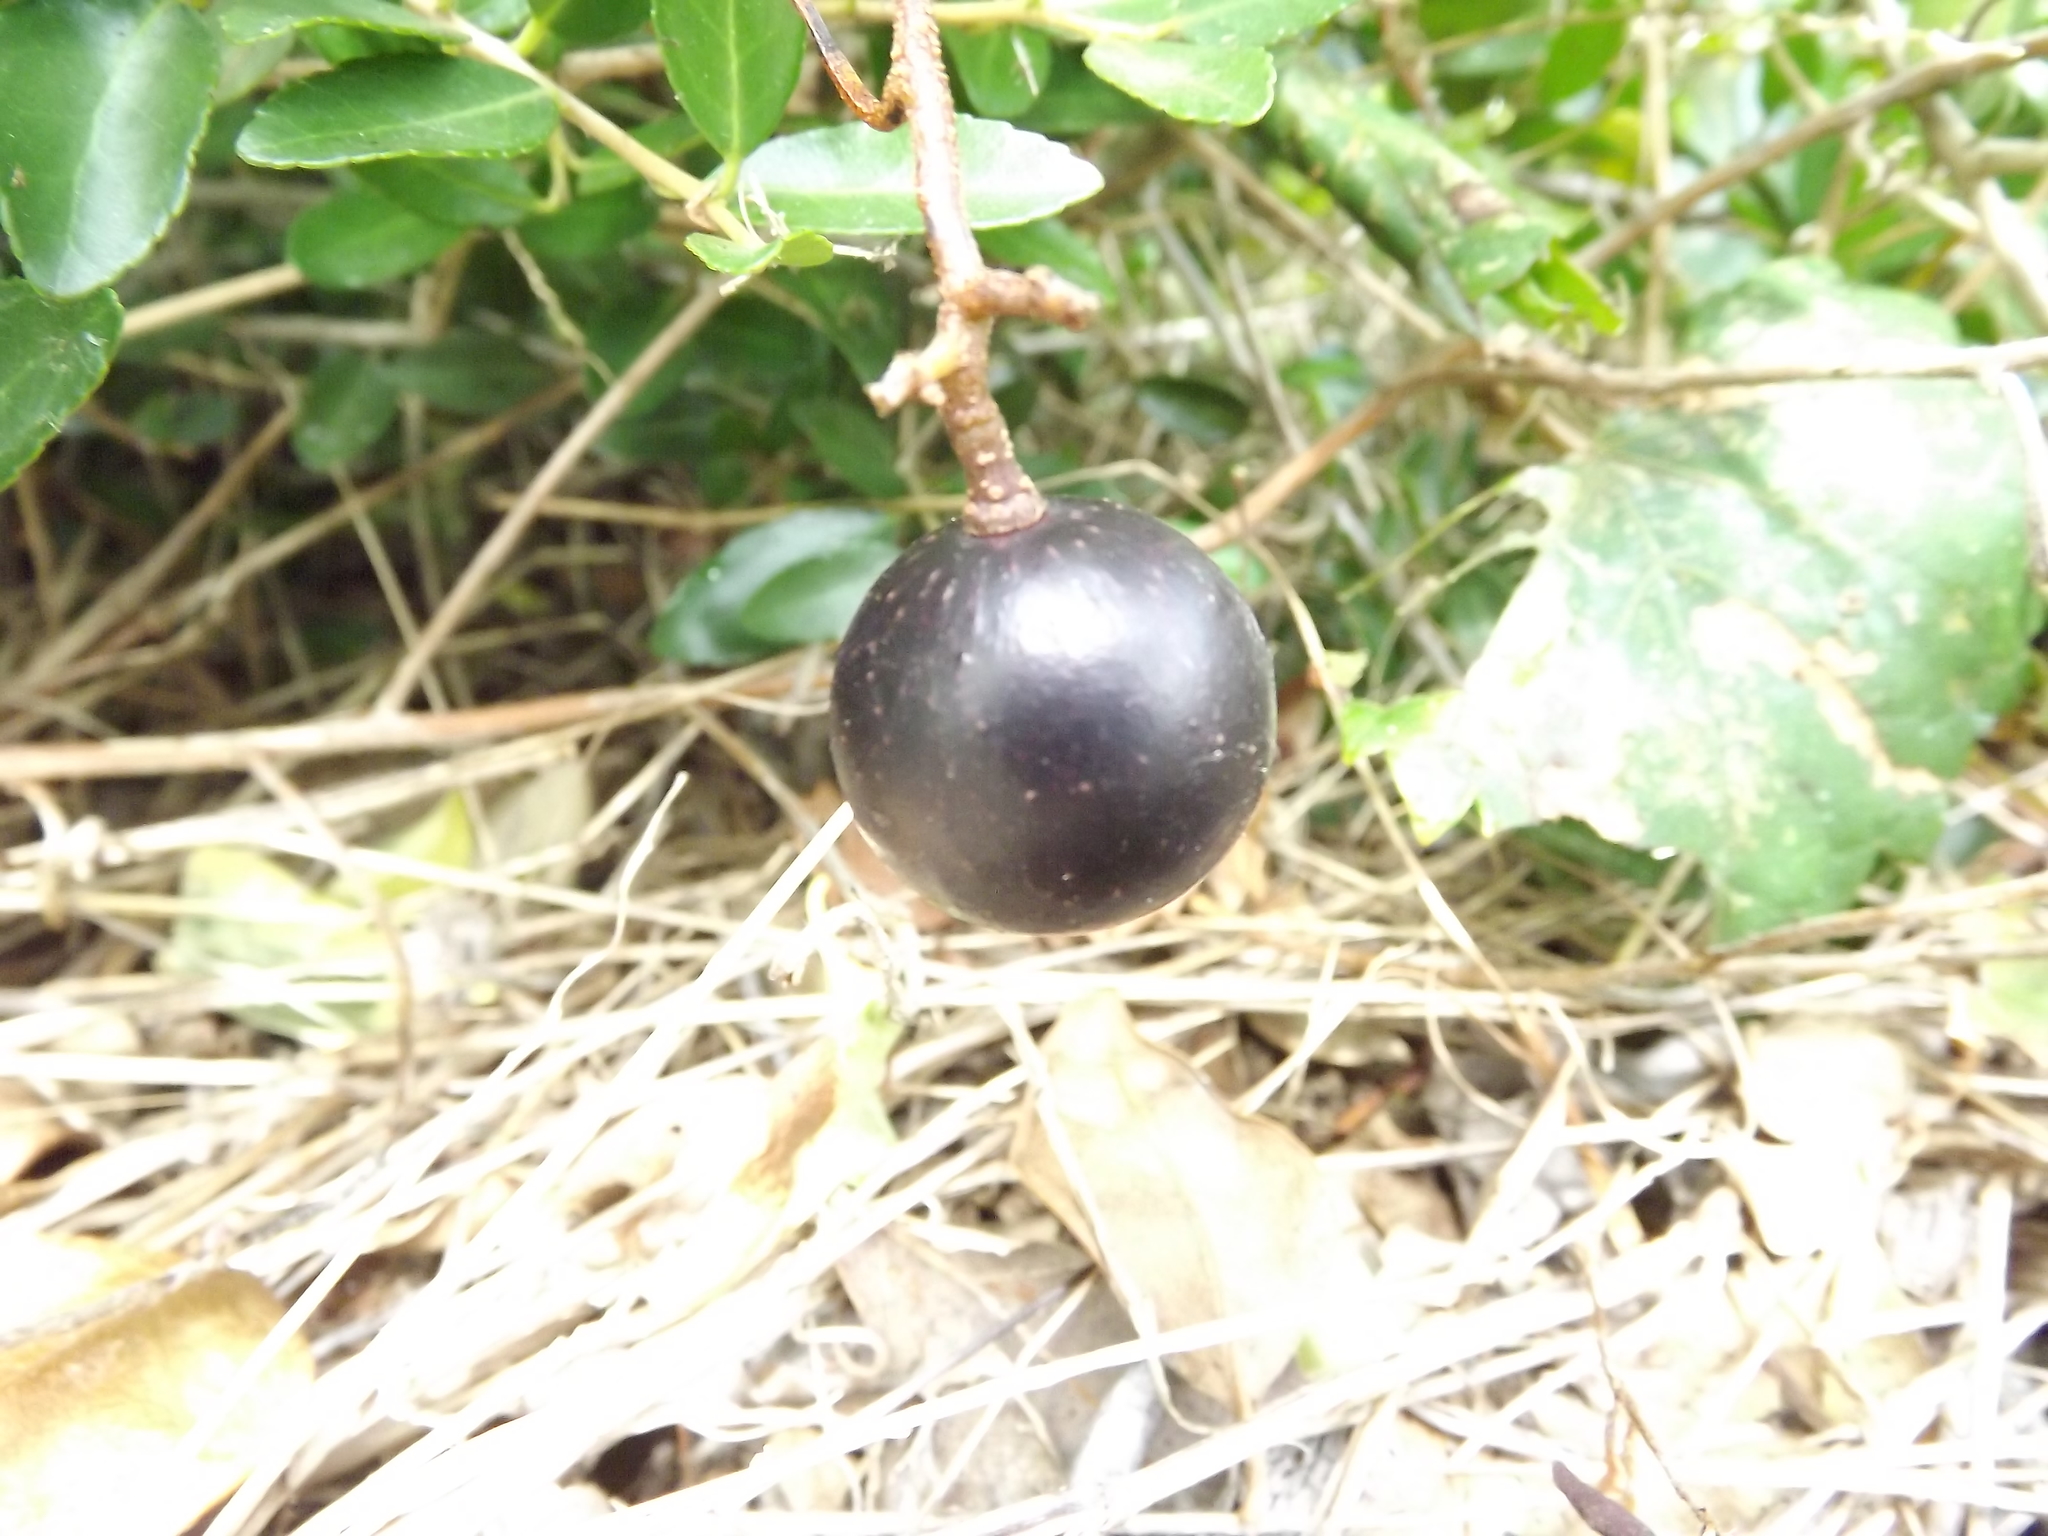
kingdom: Plantae
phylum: Tracheophyta
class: Magnoliopsida
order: Vitales
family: Vitaceae
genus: Vitis
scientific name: Vitis rotundifolia
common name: Muscadine grape
